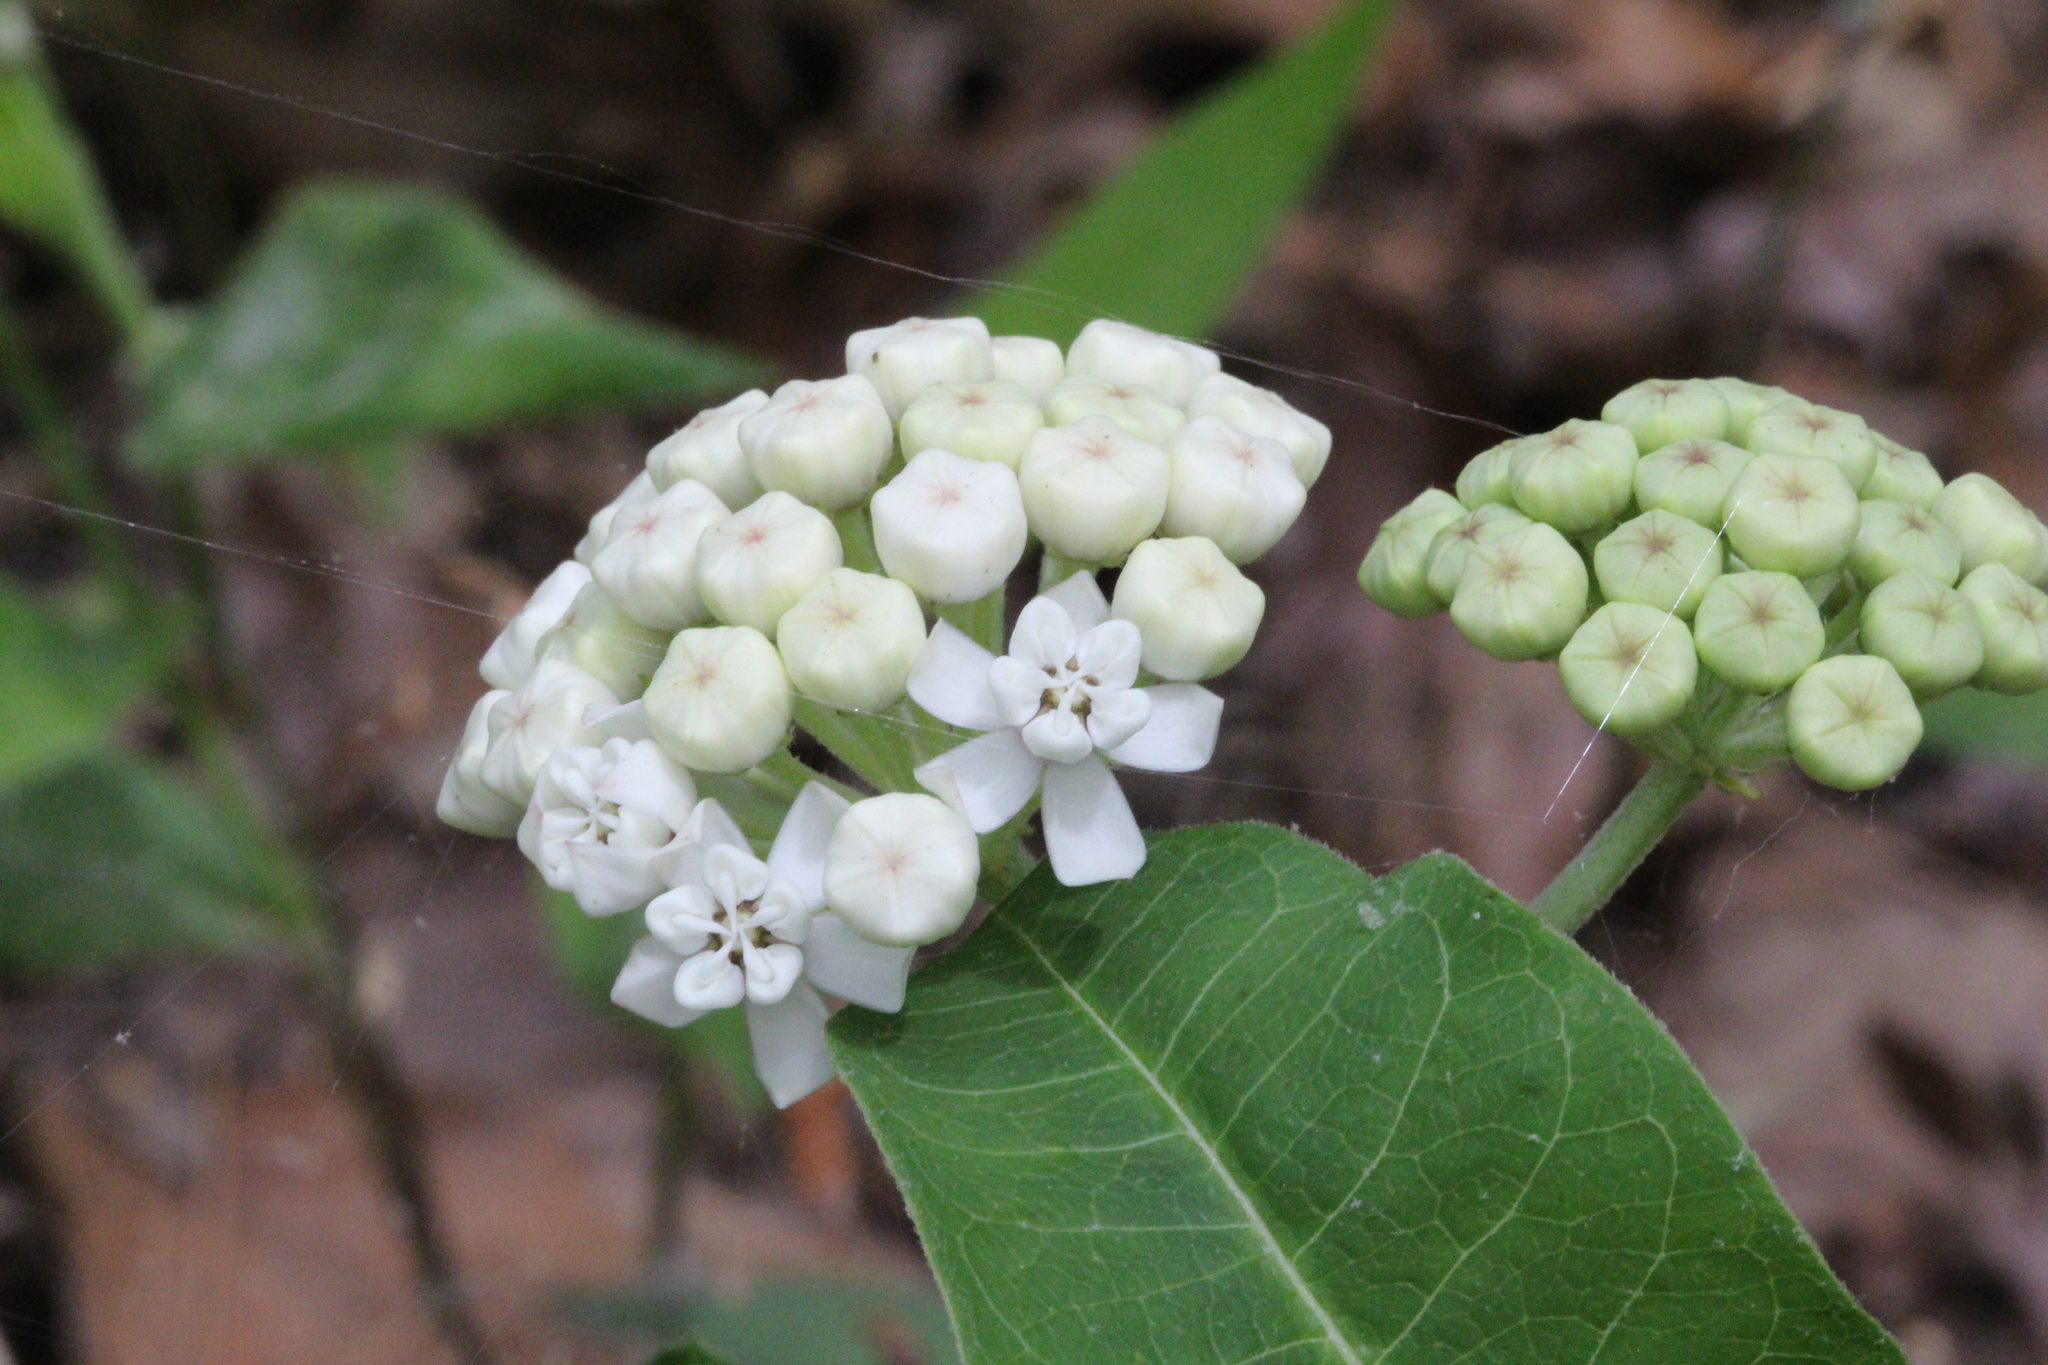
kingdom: Plantae
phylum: Tracheophyta
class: Magnoliopsida
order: Gentianales
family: Apocynaceae
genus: Asclepias
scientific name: Asclepias variegata
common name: Variegated milkweed
